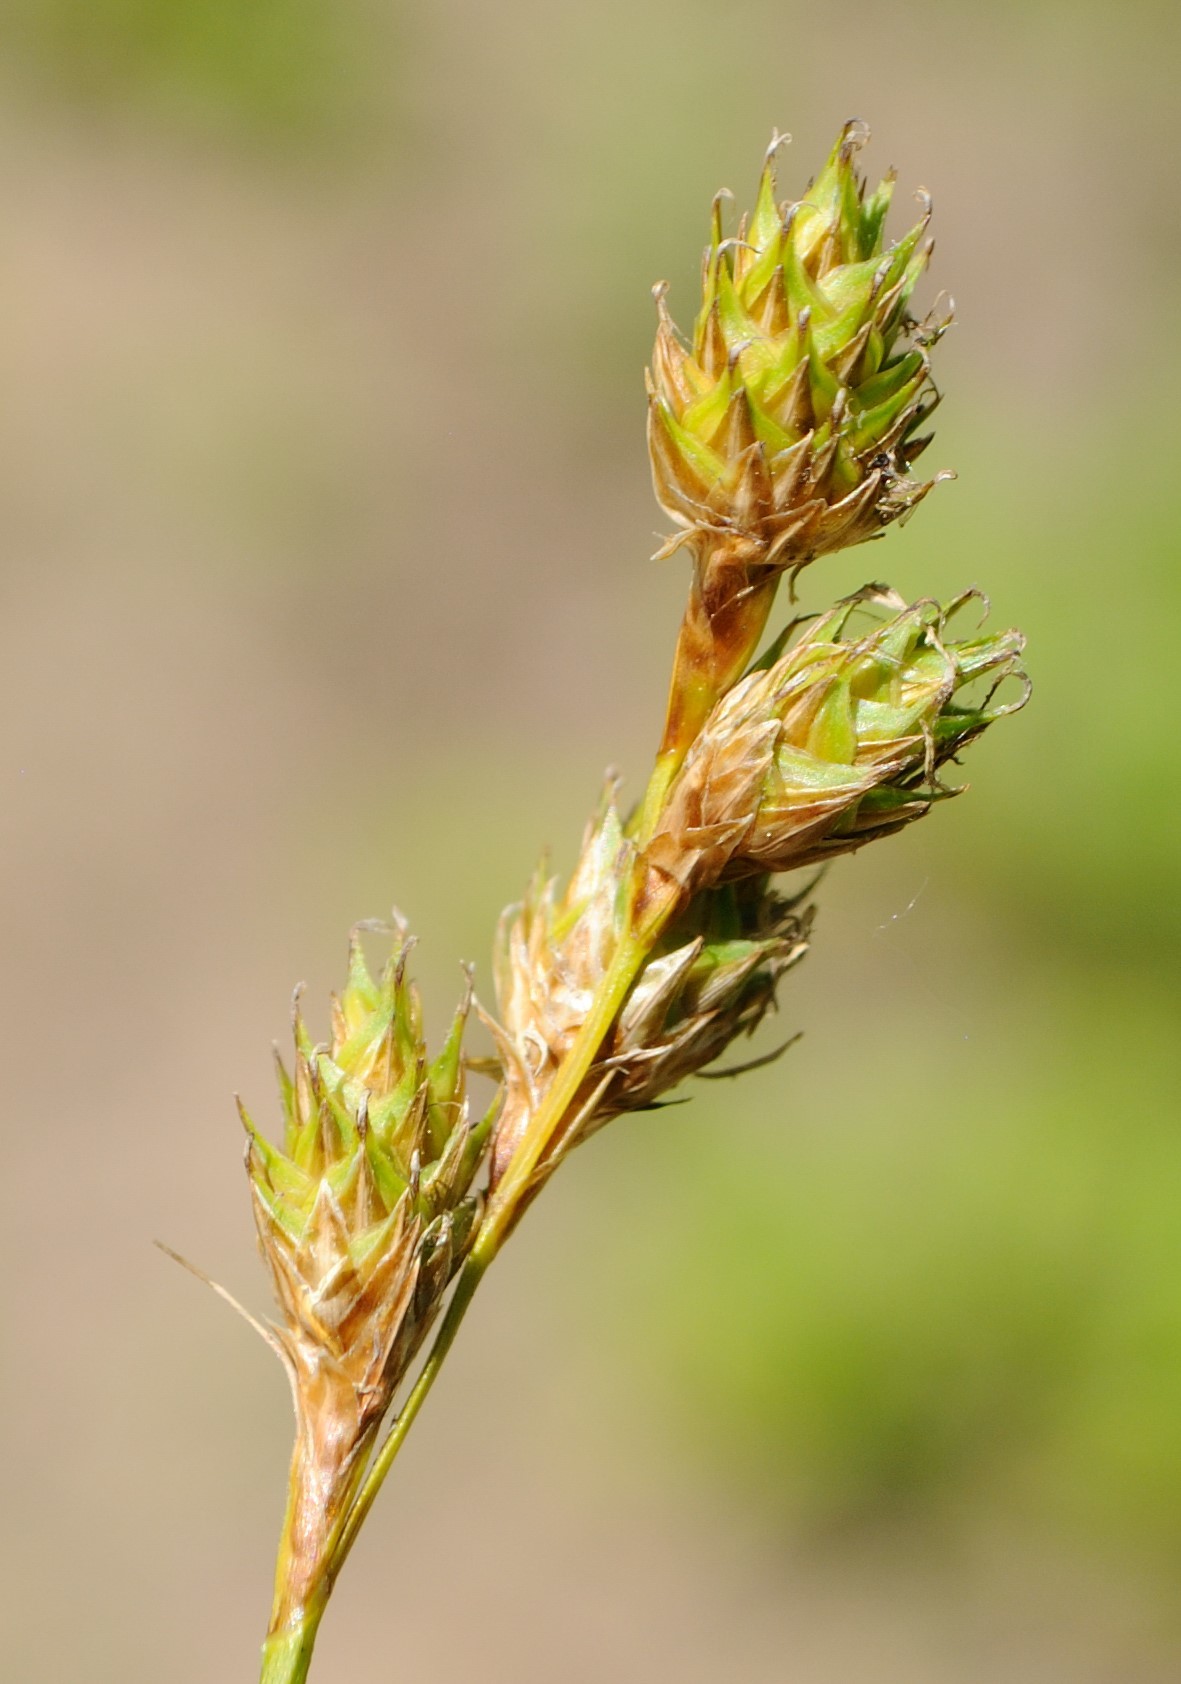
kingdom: Plantae
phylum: Tracheophyta
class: Liliopsida
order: Poales
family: Cyperaceae
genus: Carex
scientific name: Carex brevior
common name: Brevior sedge
